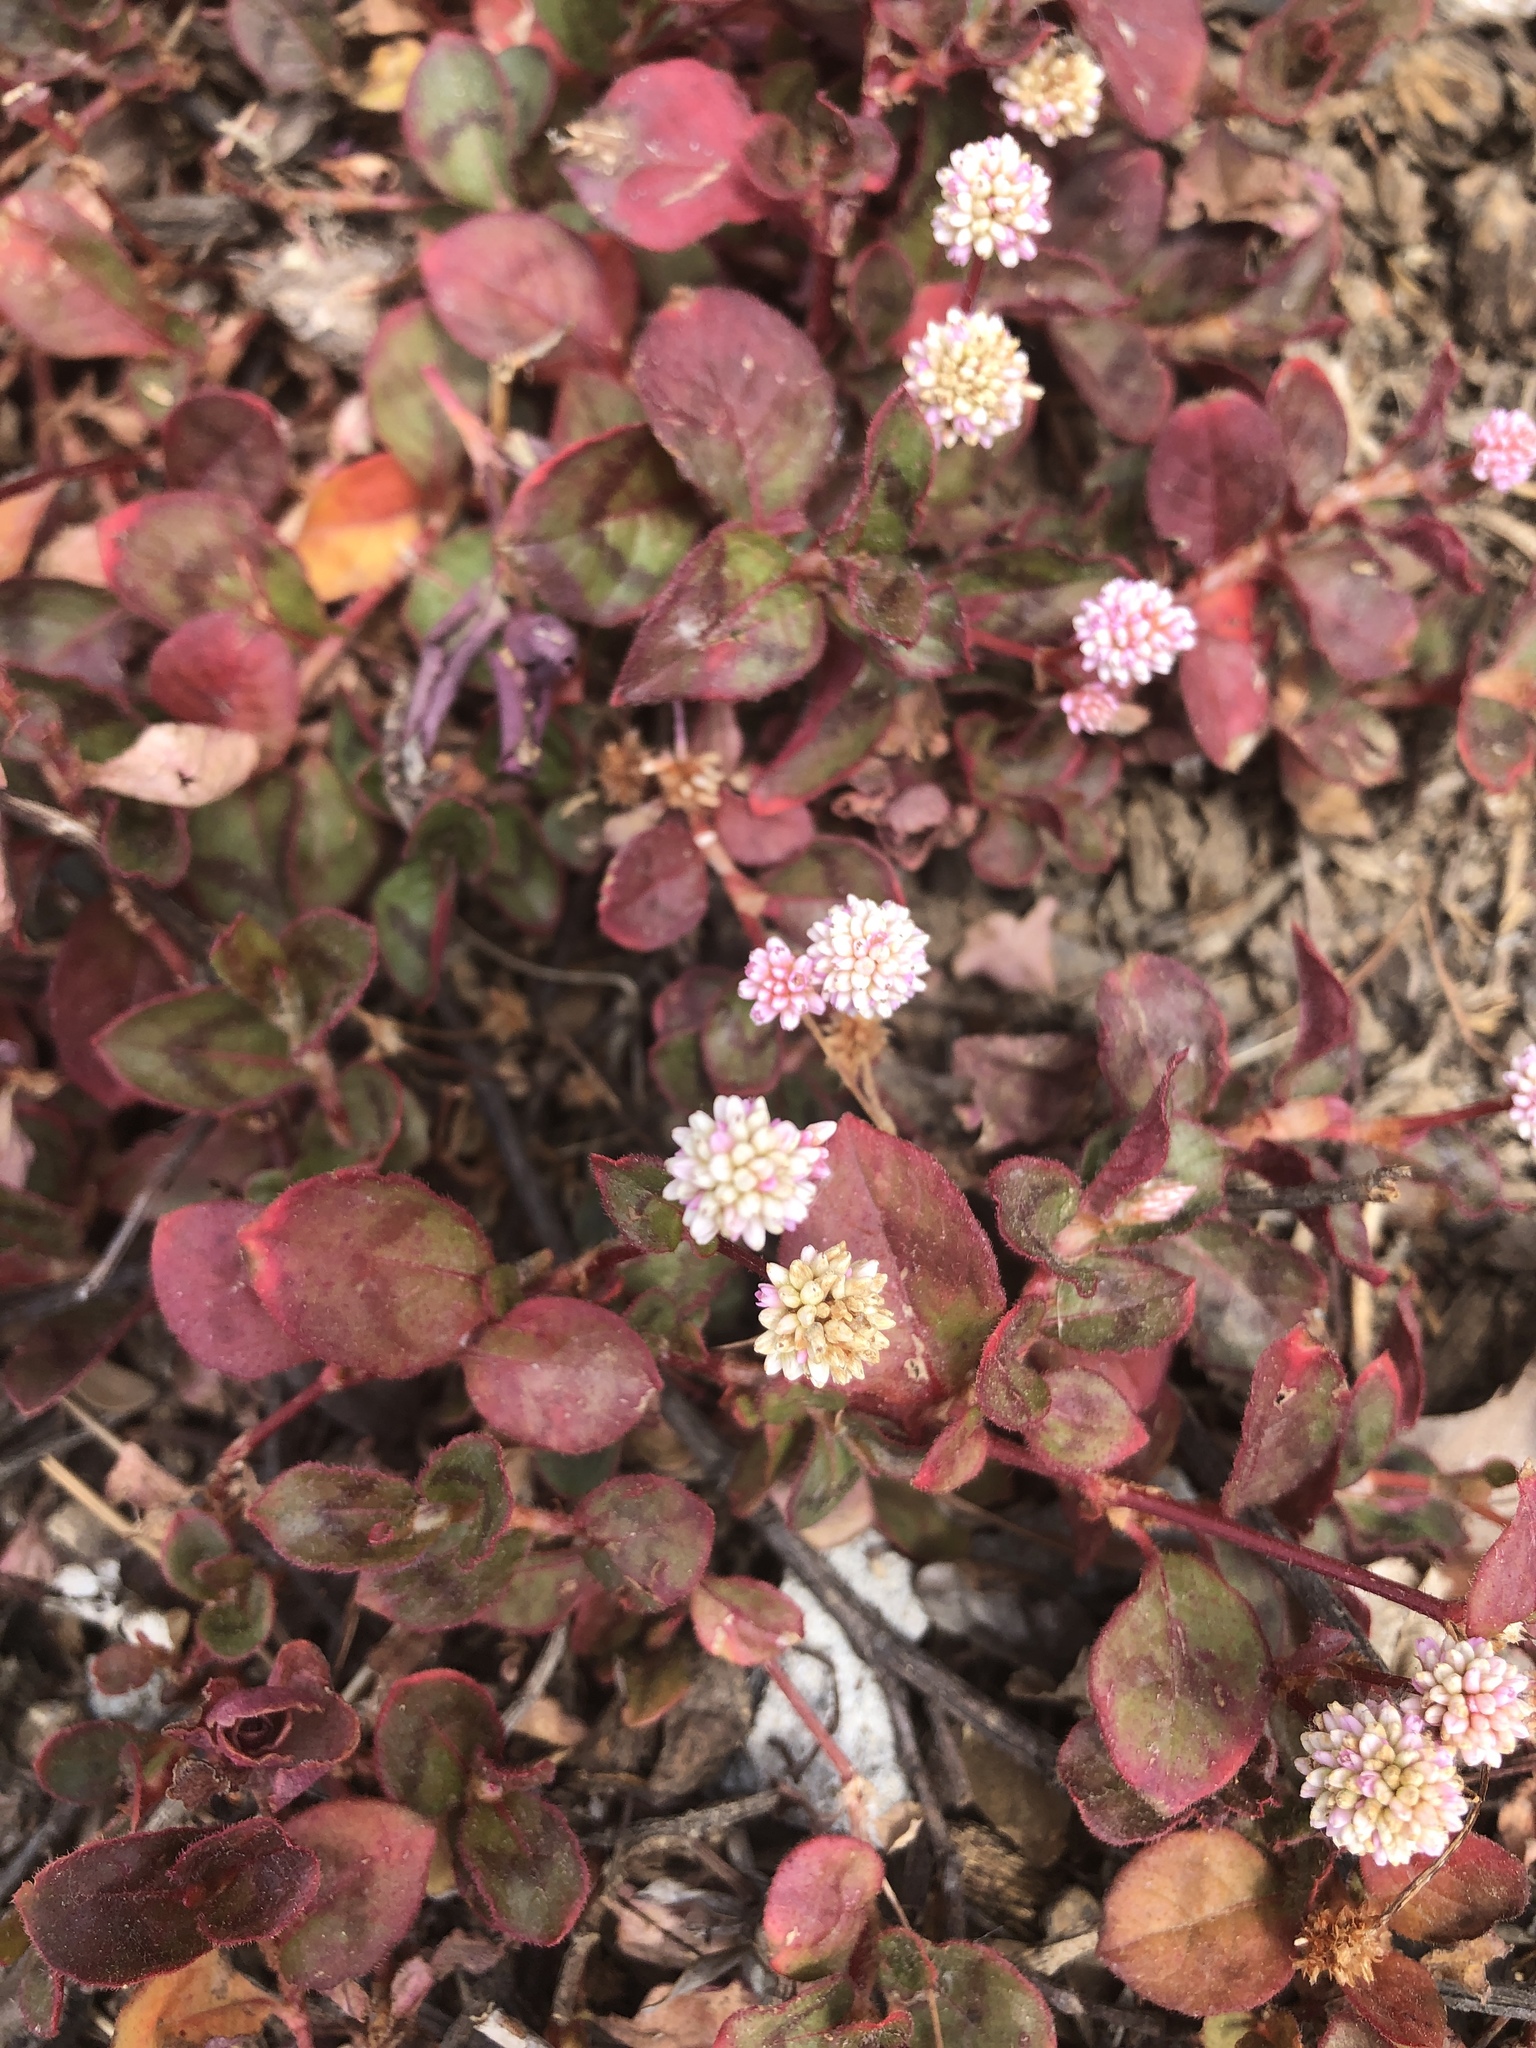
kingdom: Plantae
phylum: Tracheophyta
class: Magnoliopsida
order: Caryophyllales
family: Polygonaceae
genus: Persicaria
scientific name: Persicaria capitata
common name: Pinkhead smartweed
